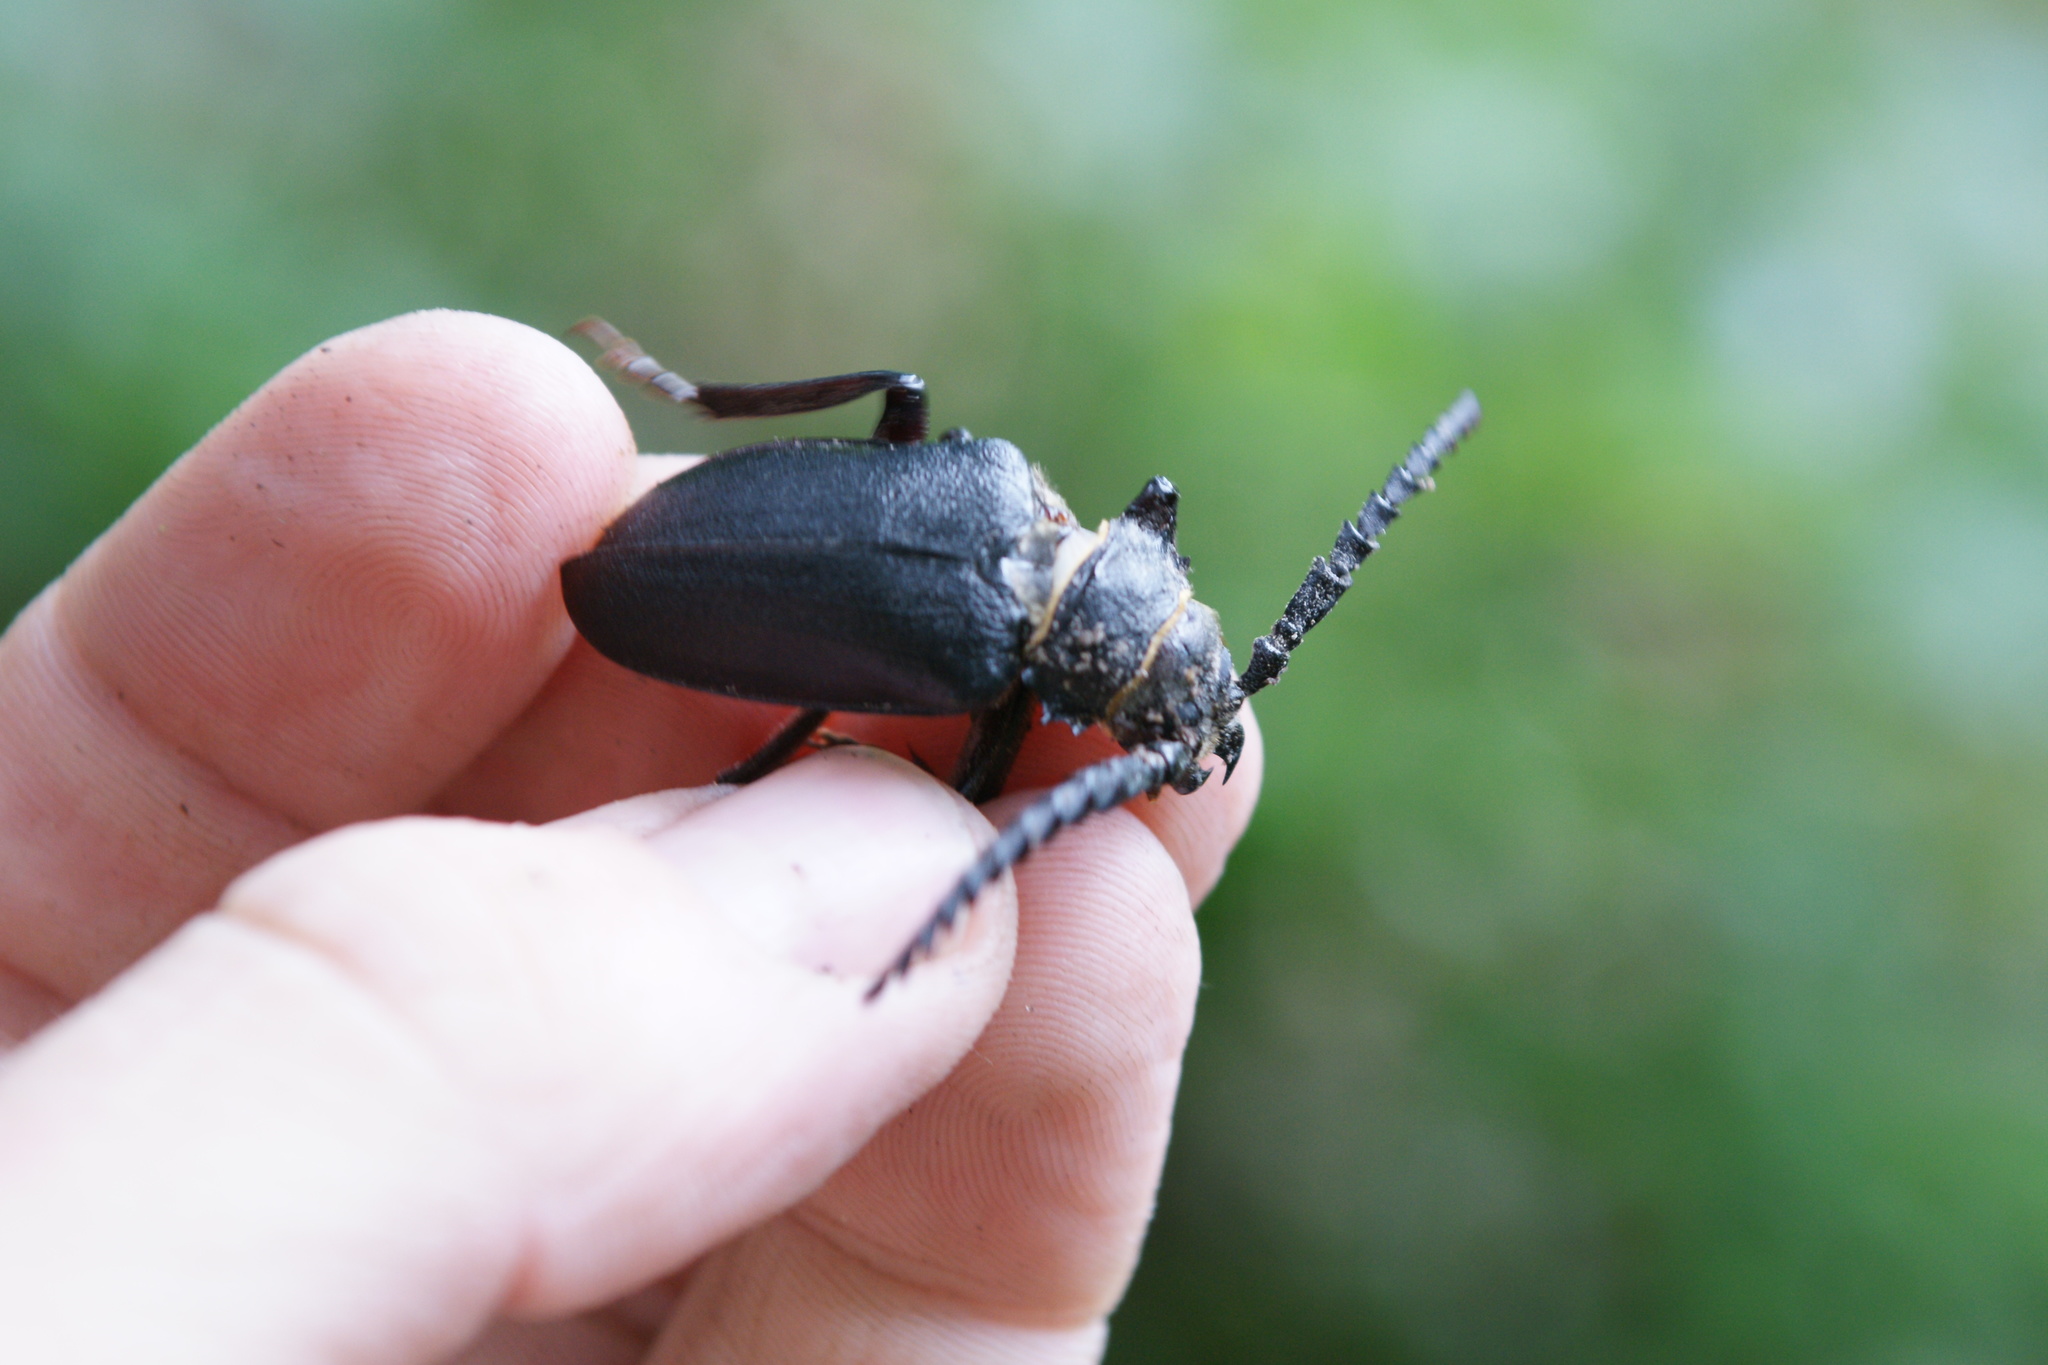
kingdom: Animalia
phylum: Arthropoda
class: Insecta
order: Coleoptera
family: Cerambycidae
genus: Prionus
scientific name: Prionus coriarius
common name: Tanner beetle
